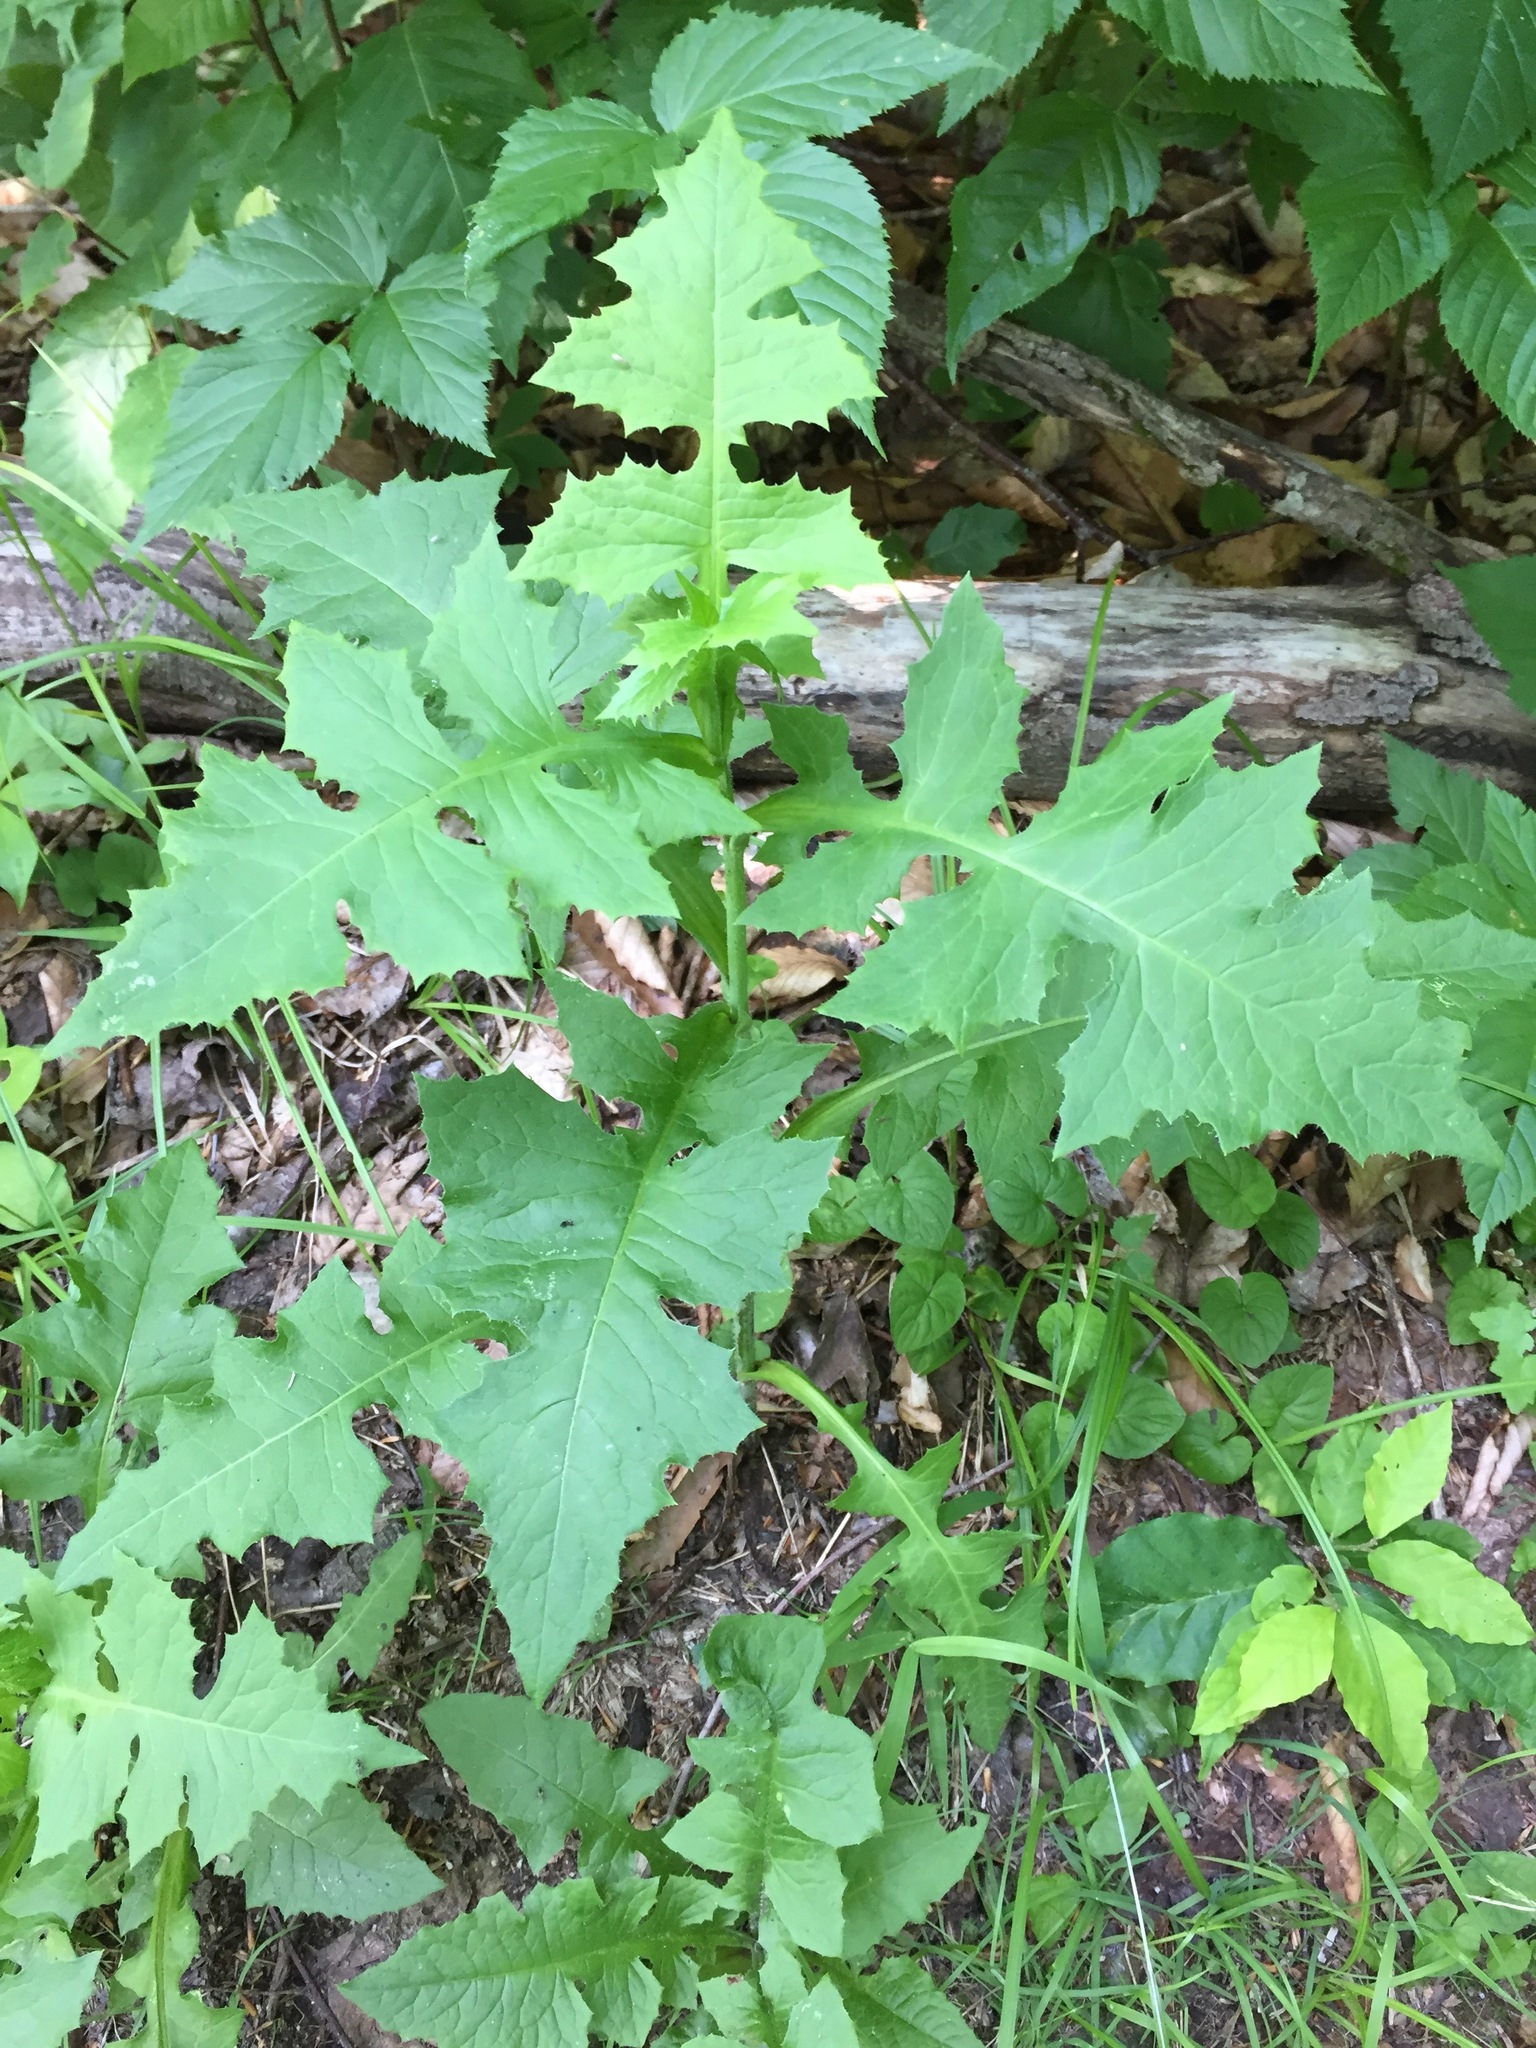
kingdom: Plantae
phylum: Tracheophyta
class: Magnoliopsida
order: Asterales
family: Asteraceae
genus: Lactuca
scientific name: Lactuca biennis
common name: Blue wood lettuce
